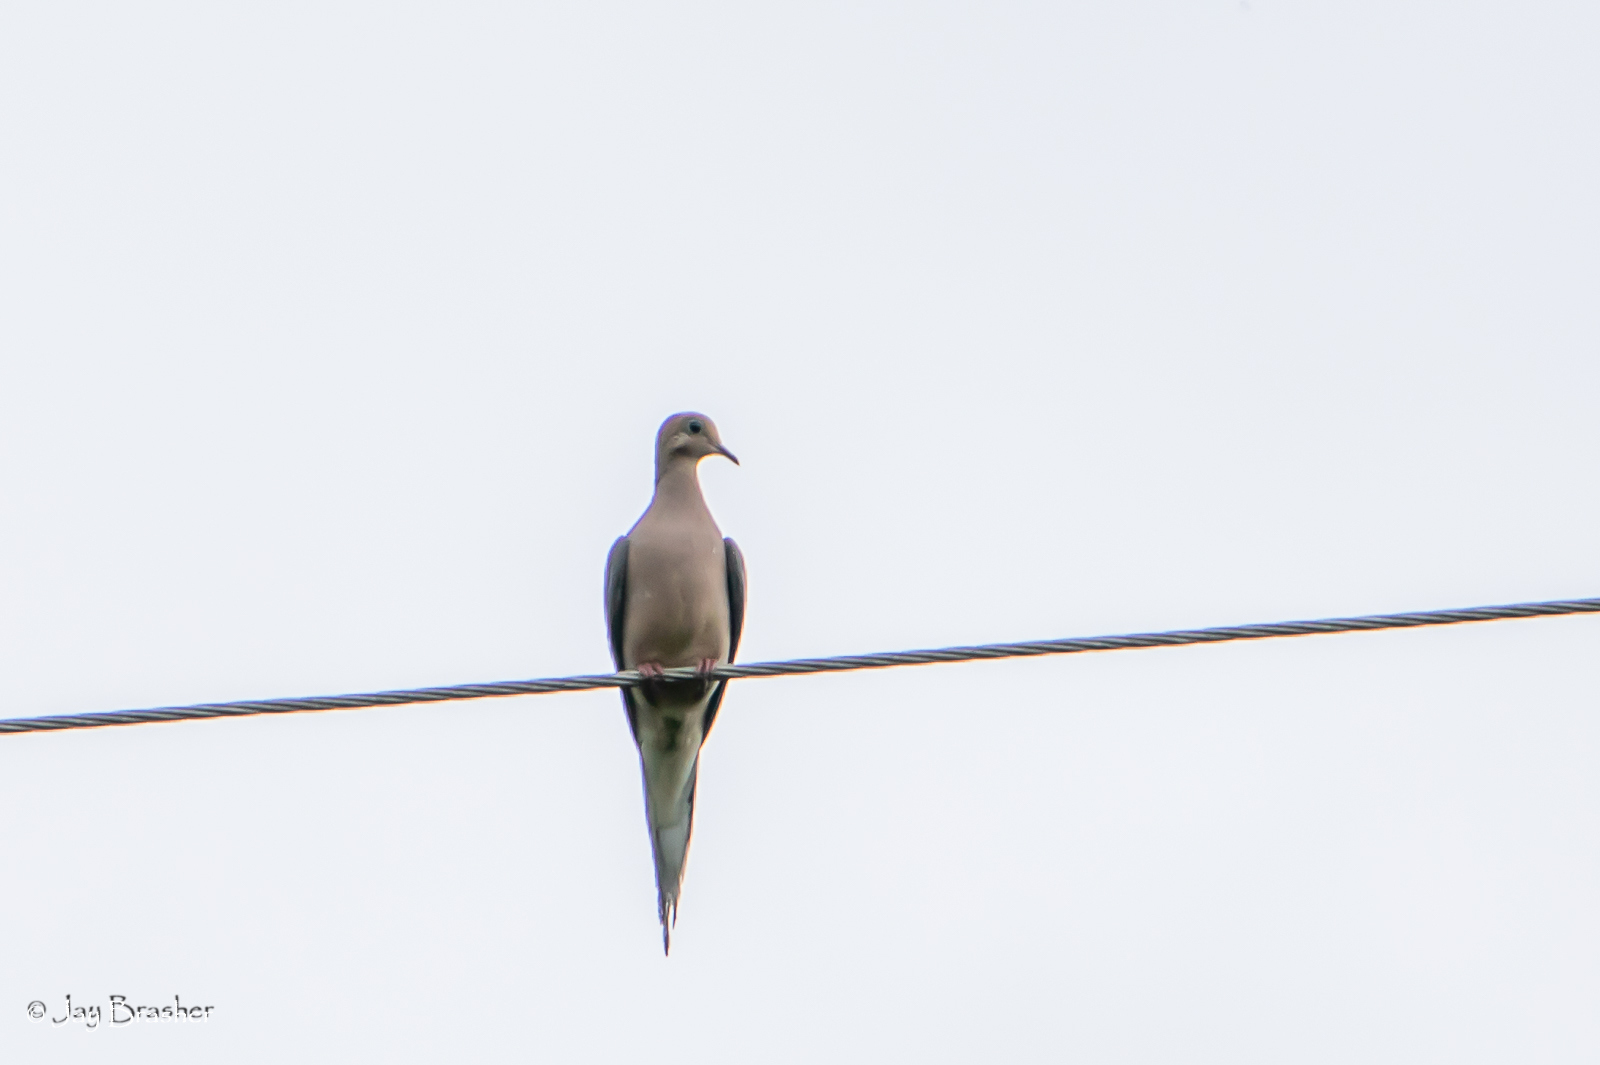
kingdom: Animalia
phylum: Chordata
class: Aves
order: Columbiformes
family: Columbidae
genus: Zenaida
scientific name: Zenaida macroura
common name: Mourning dove
